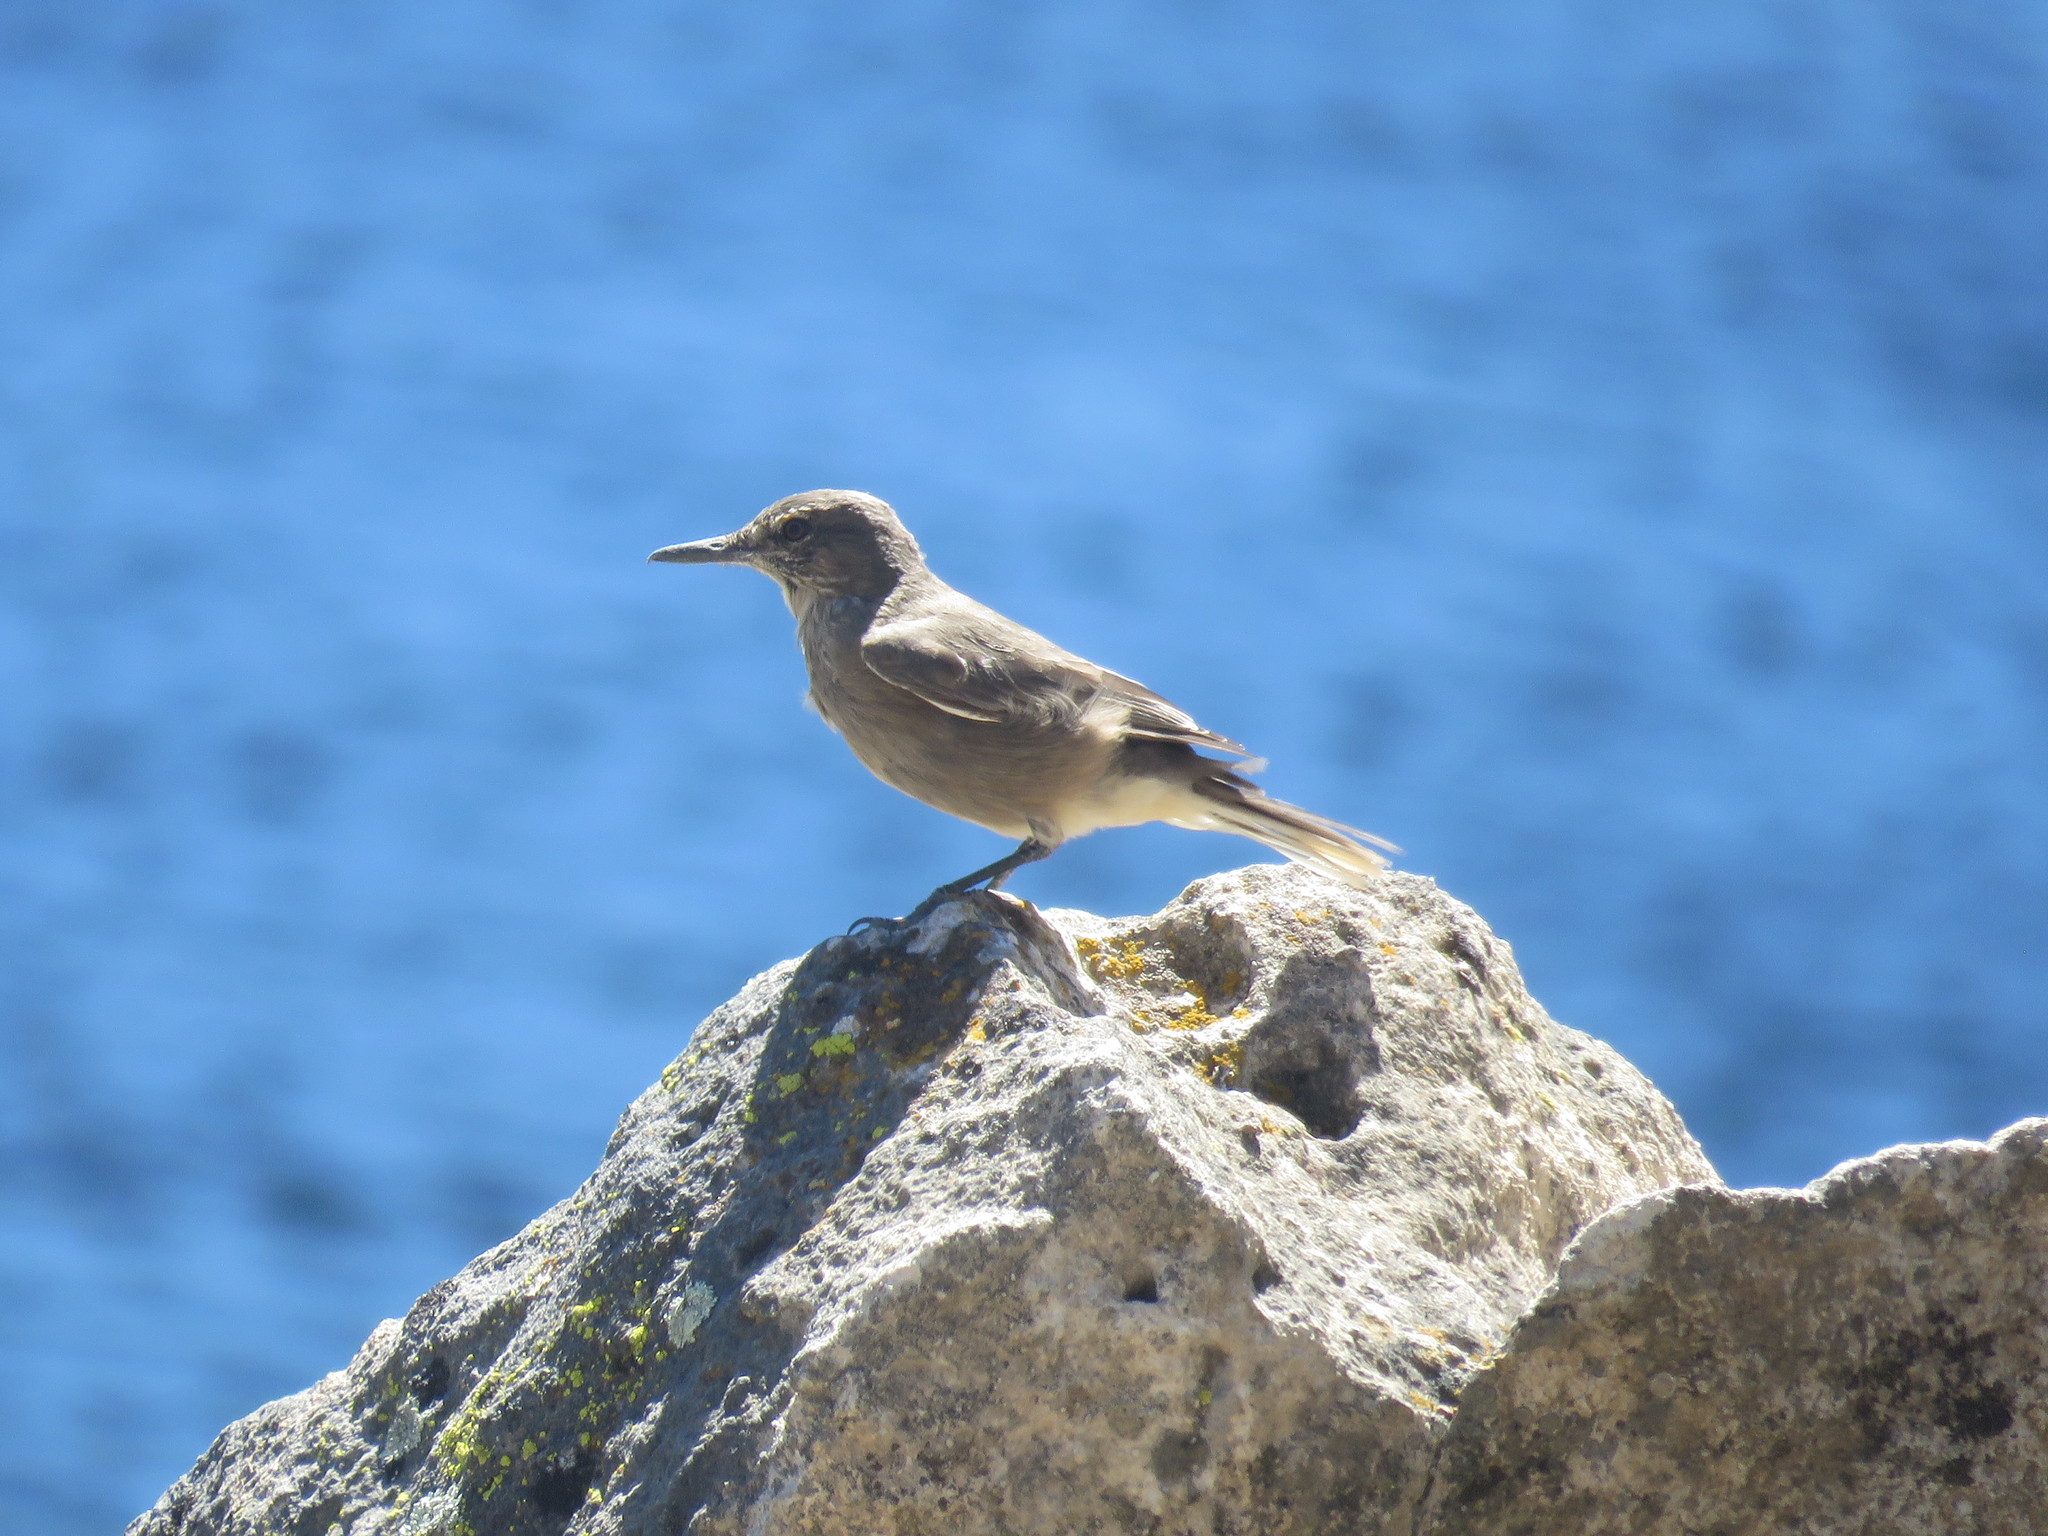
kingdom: Animalia
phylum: Chordata
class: Aves
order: Passeriformes
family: Tyrannidae
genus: Agriornis
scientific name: Agriornis montanus
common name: Black-billed shrike-tyrant
